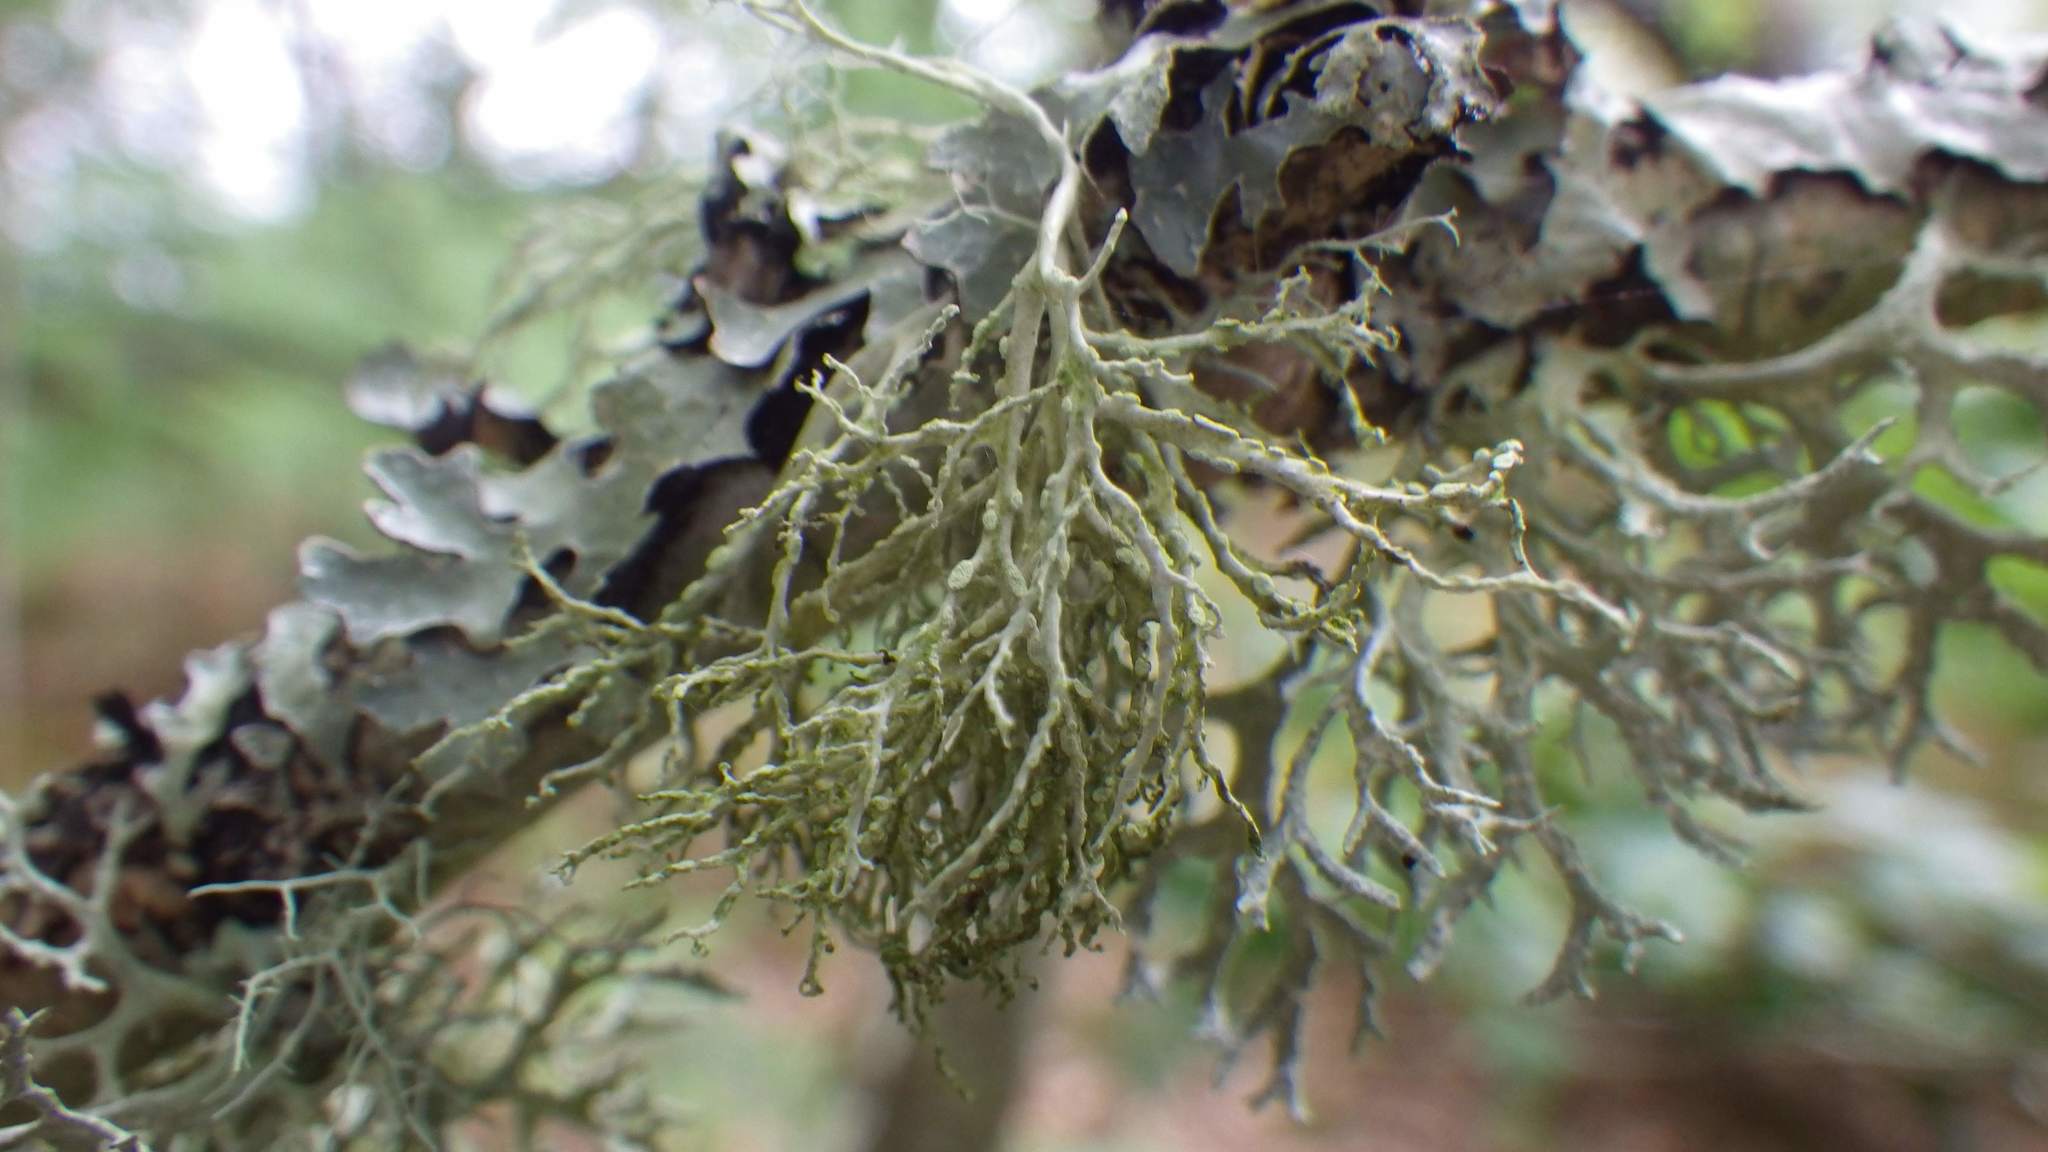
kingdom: Fungi
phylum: Ascomycota
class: Lecanoromycetes
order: Lecanorales
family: Ramalinaceae
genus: Ramalina
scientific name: Ramalina farinacea
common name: Farinose cartilage lichen
